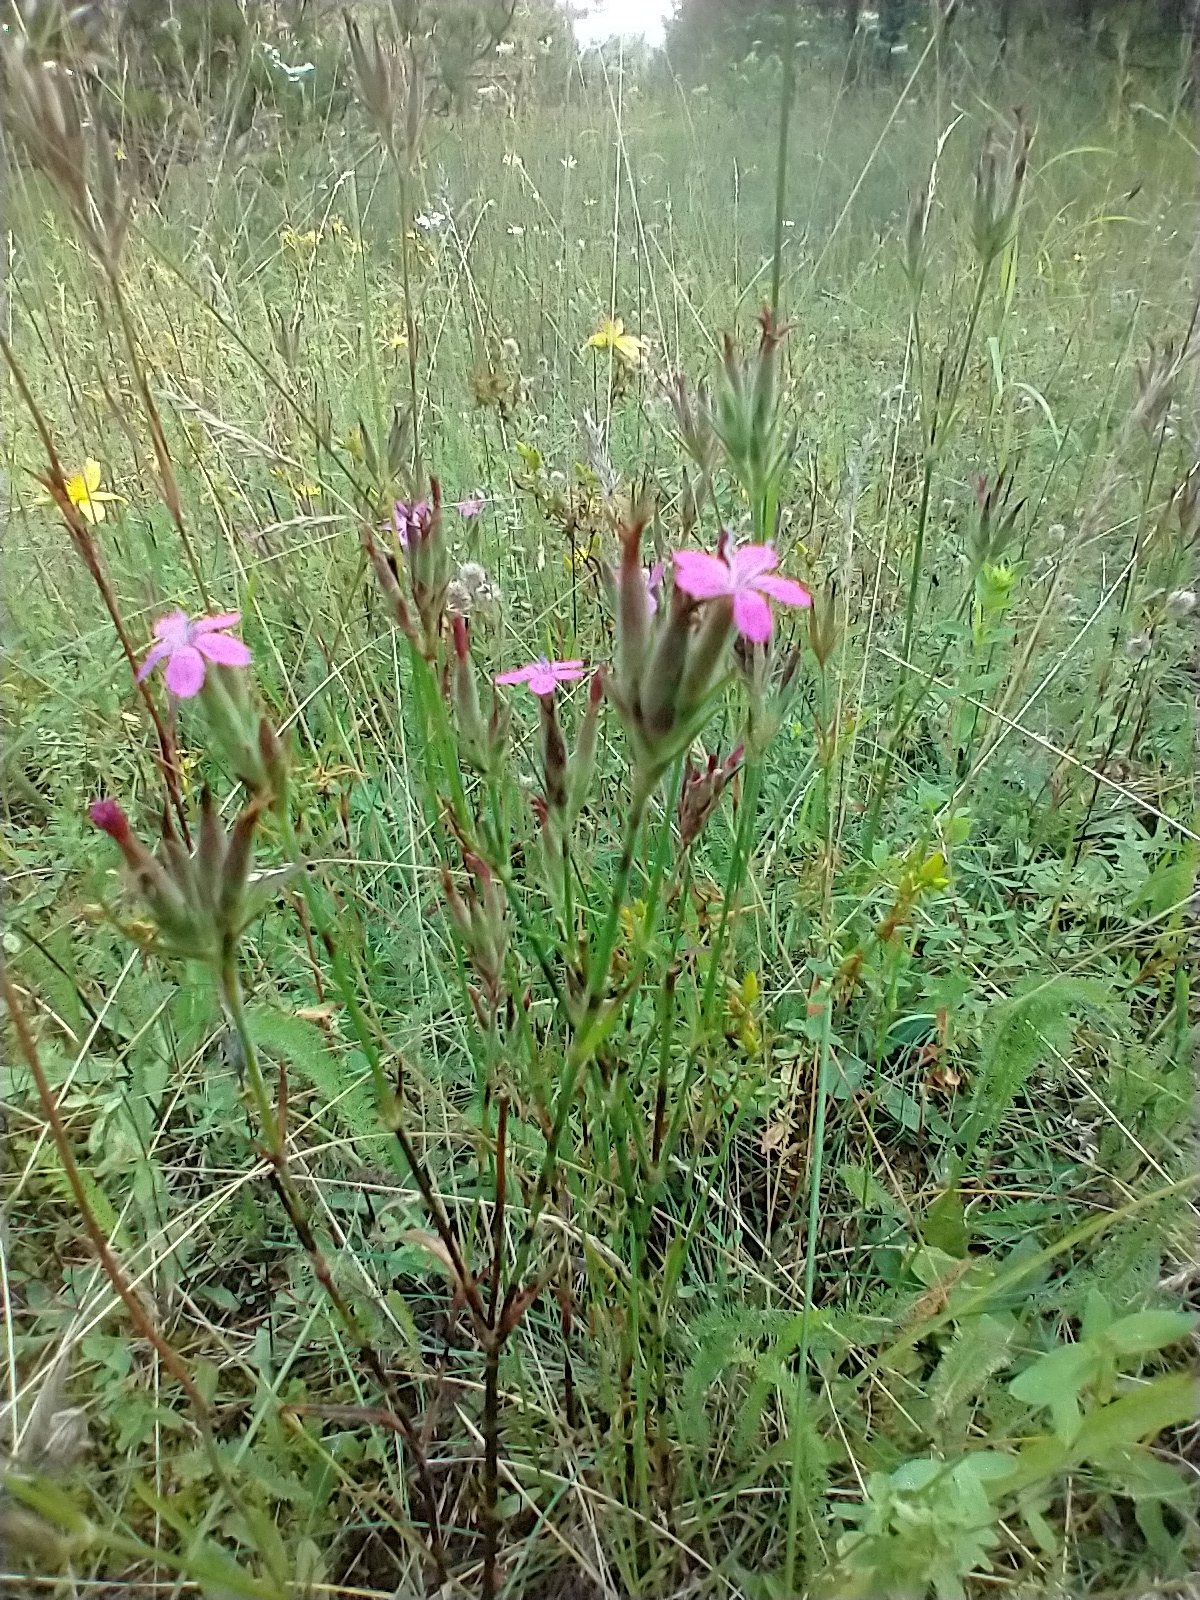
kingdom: Plantae
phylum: Tracheophyta
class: Magnoliopsida
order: Caryophyllales
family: Caryophyllaceae
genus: Dianthus
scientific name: Dianthus armeria
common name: Deptford pink
